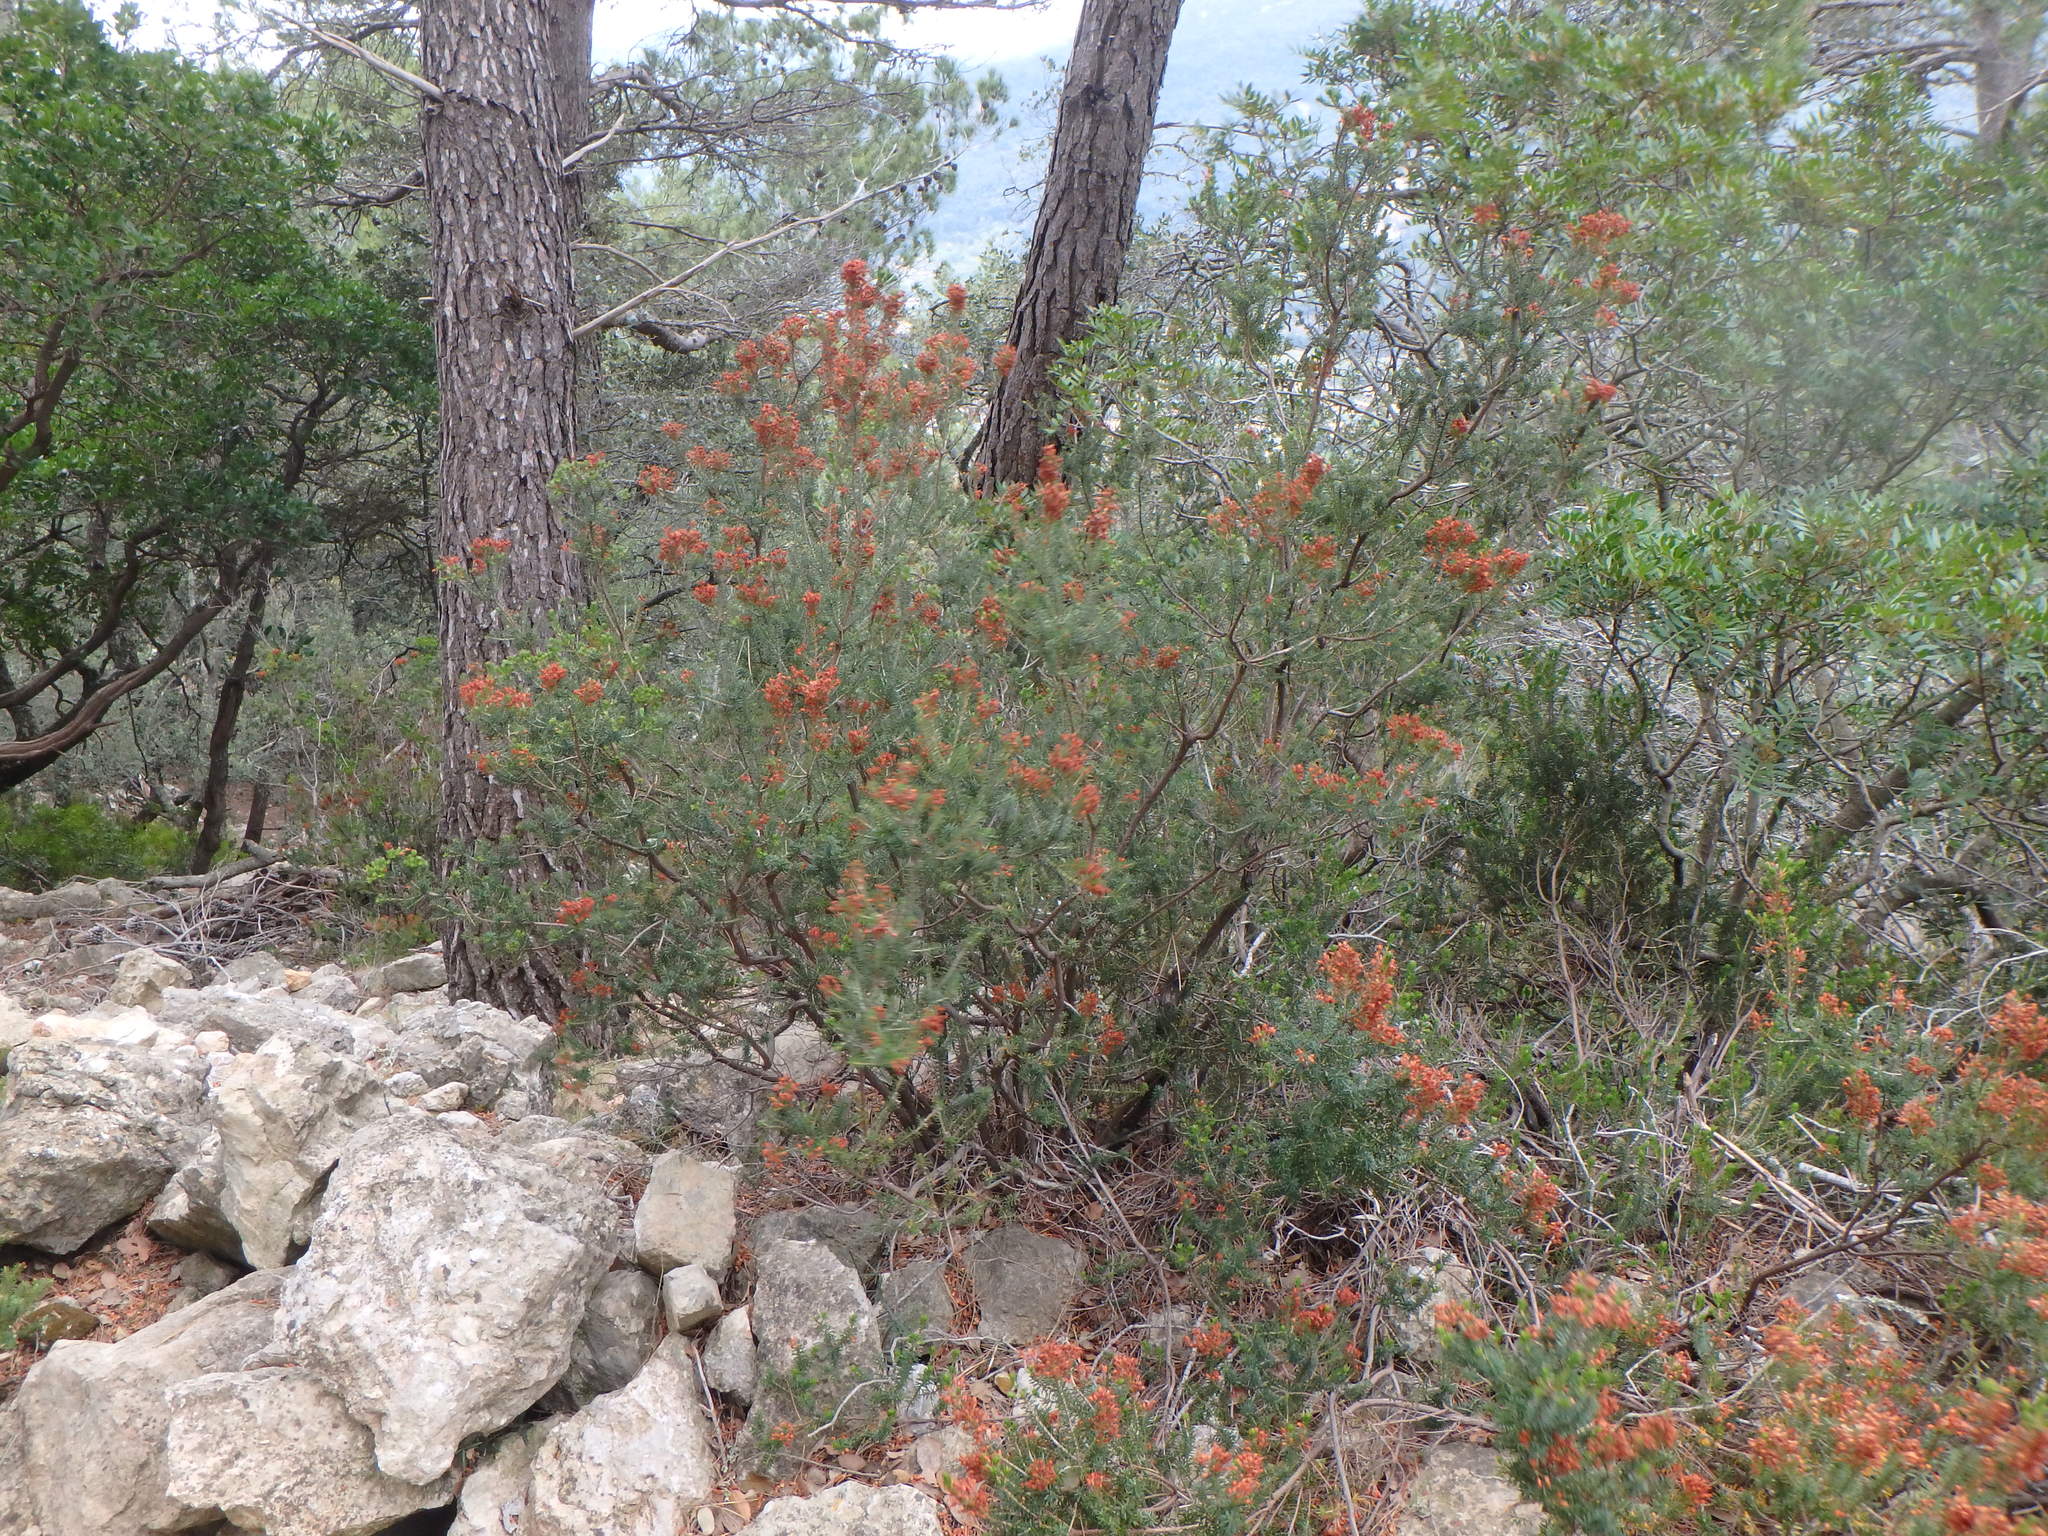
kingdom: Plantae
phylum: Tracheophyta
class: Magnoliopsida
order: Ericales
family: Ericaceae
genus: Erica
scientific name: Erica multiflora
